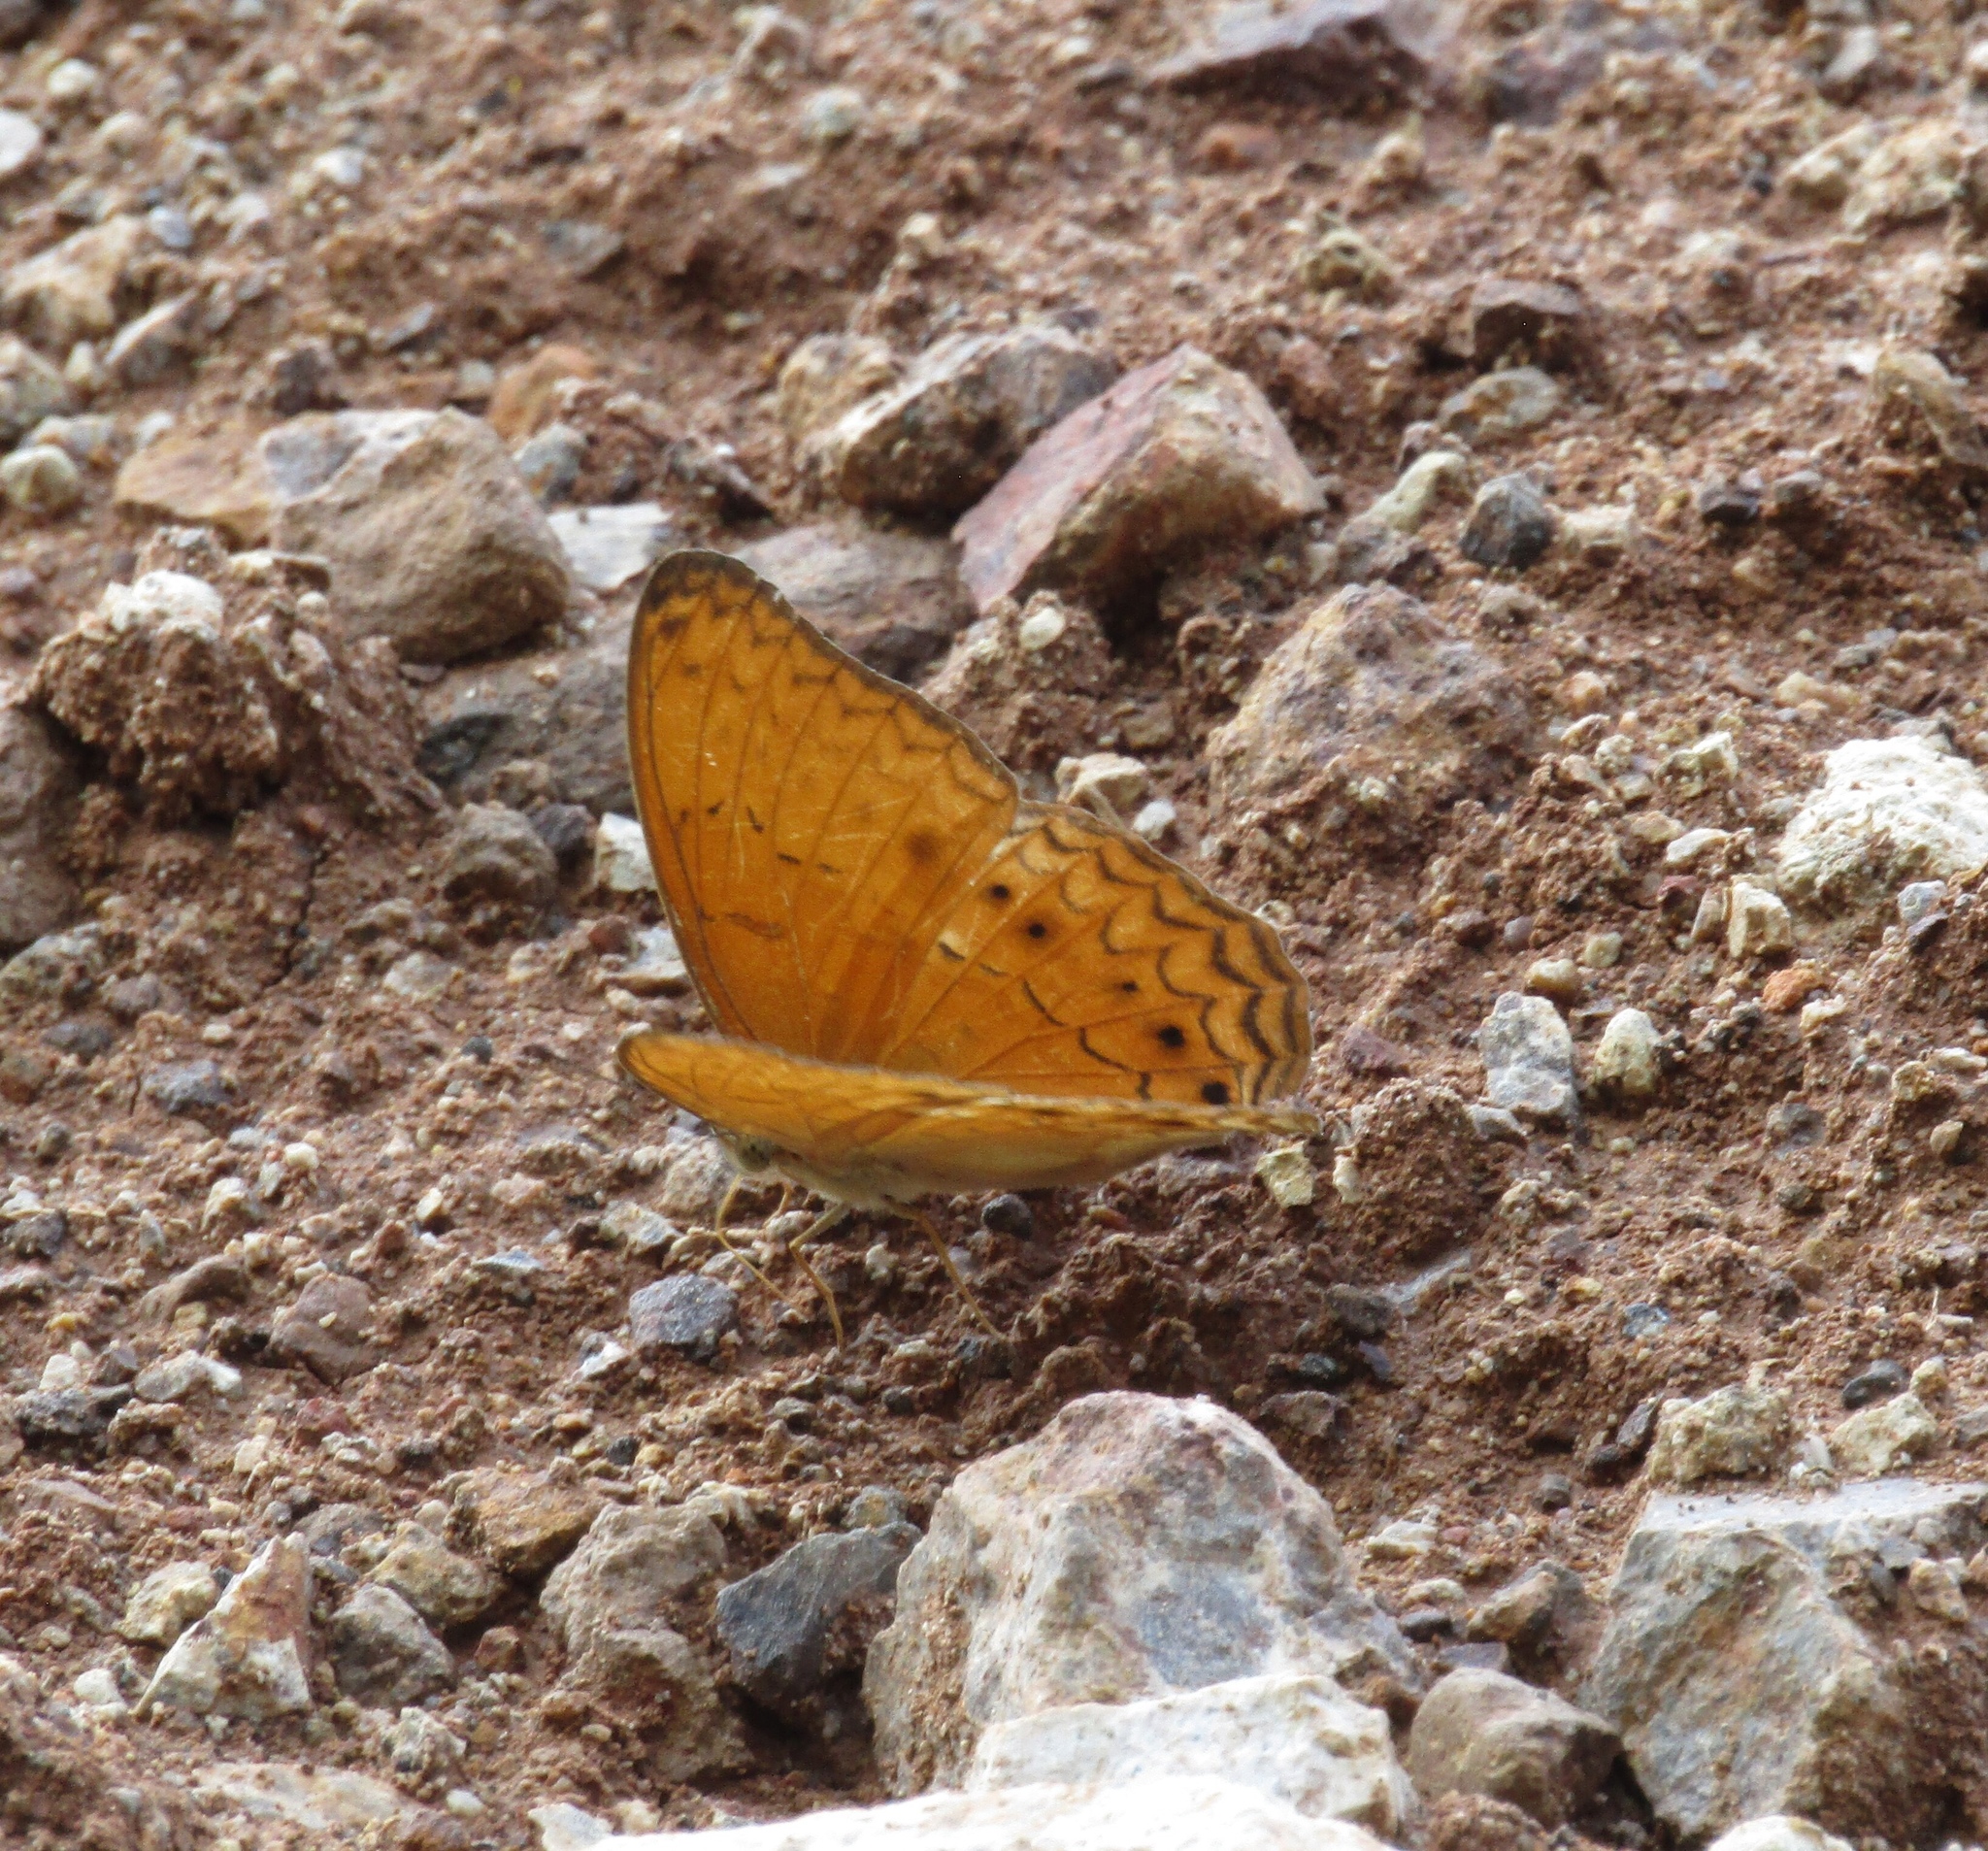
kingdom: Animalia
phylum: Arthropoda
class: Insecta
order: Lepidoptera
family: Nymphalidae
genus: Cirrochroa
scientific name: Cirrochroa tyche
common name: Common yeoman
